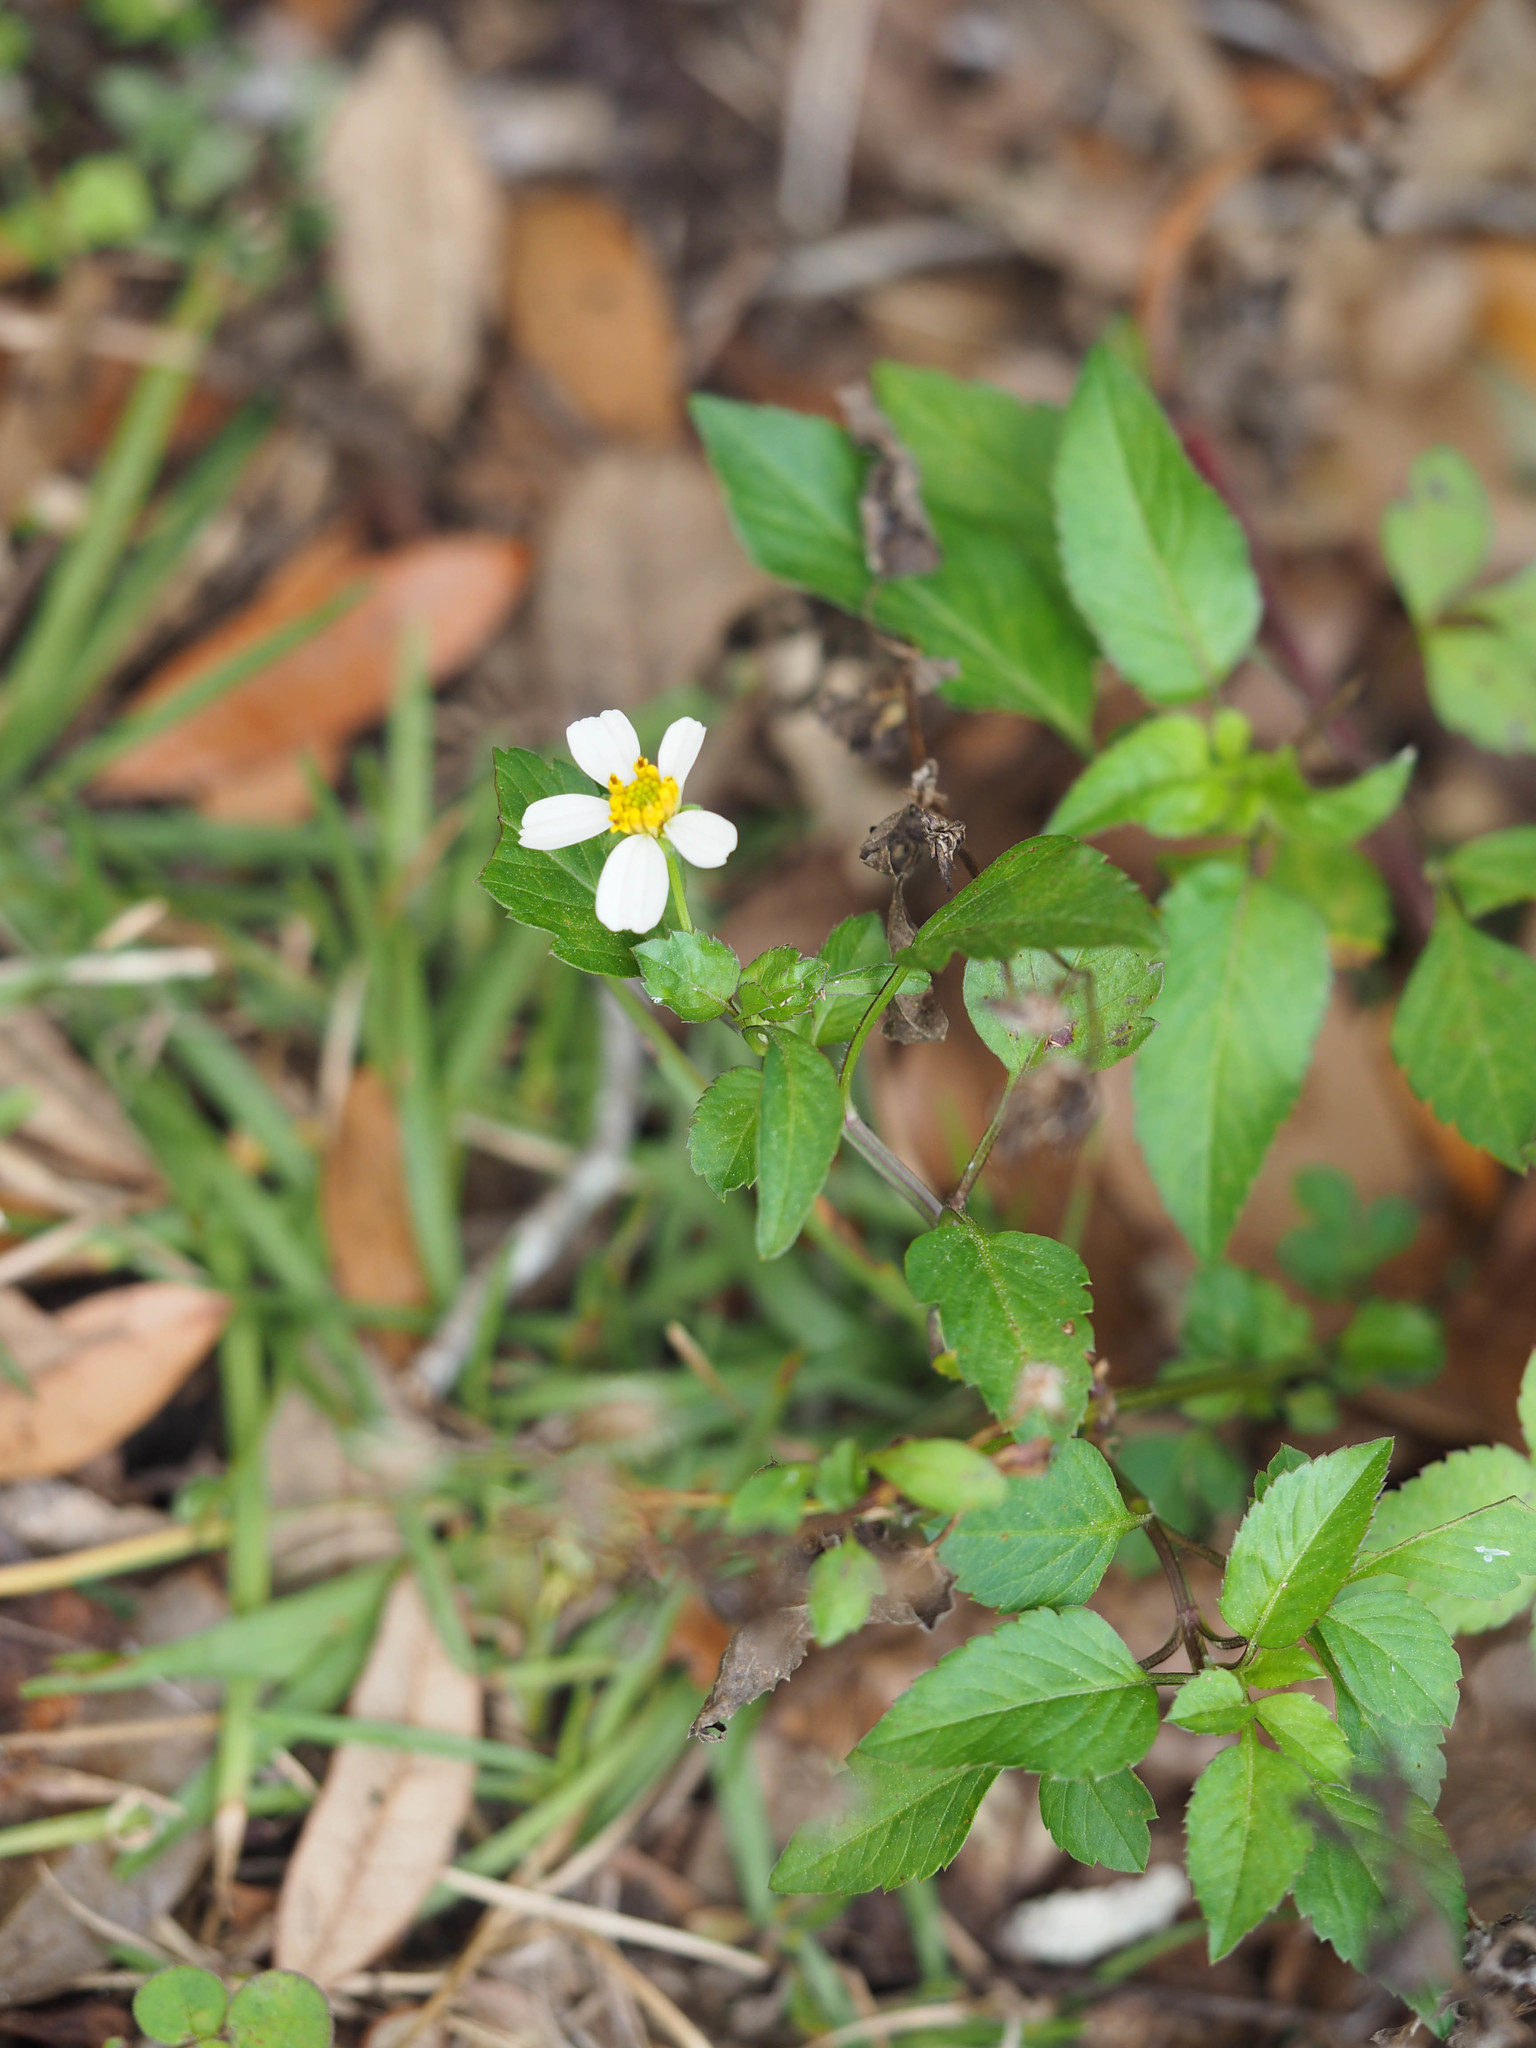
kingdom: Plantae
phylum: Tracheophyta
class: Magnoliopsida
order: Asterales
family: Asteraceae
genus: Bidens
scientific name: Bidens alba
